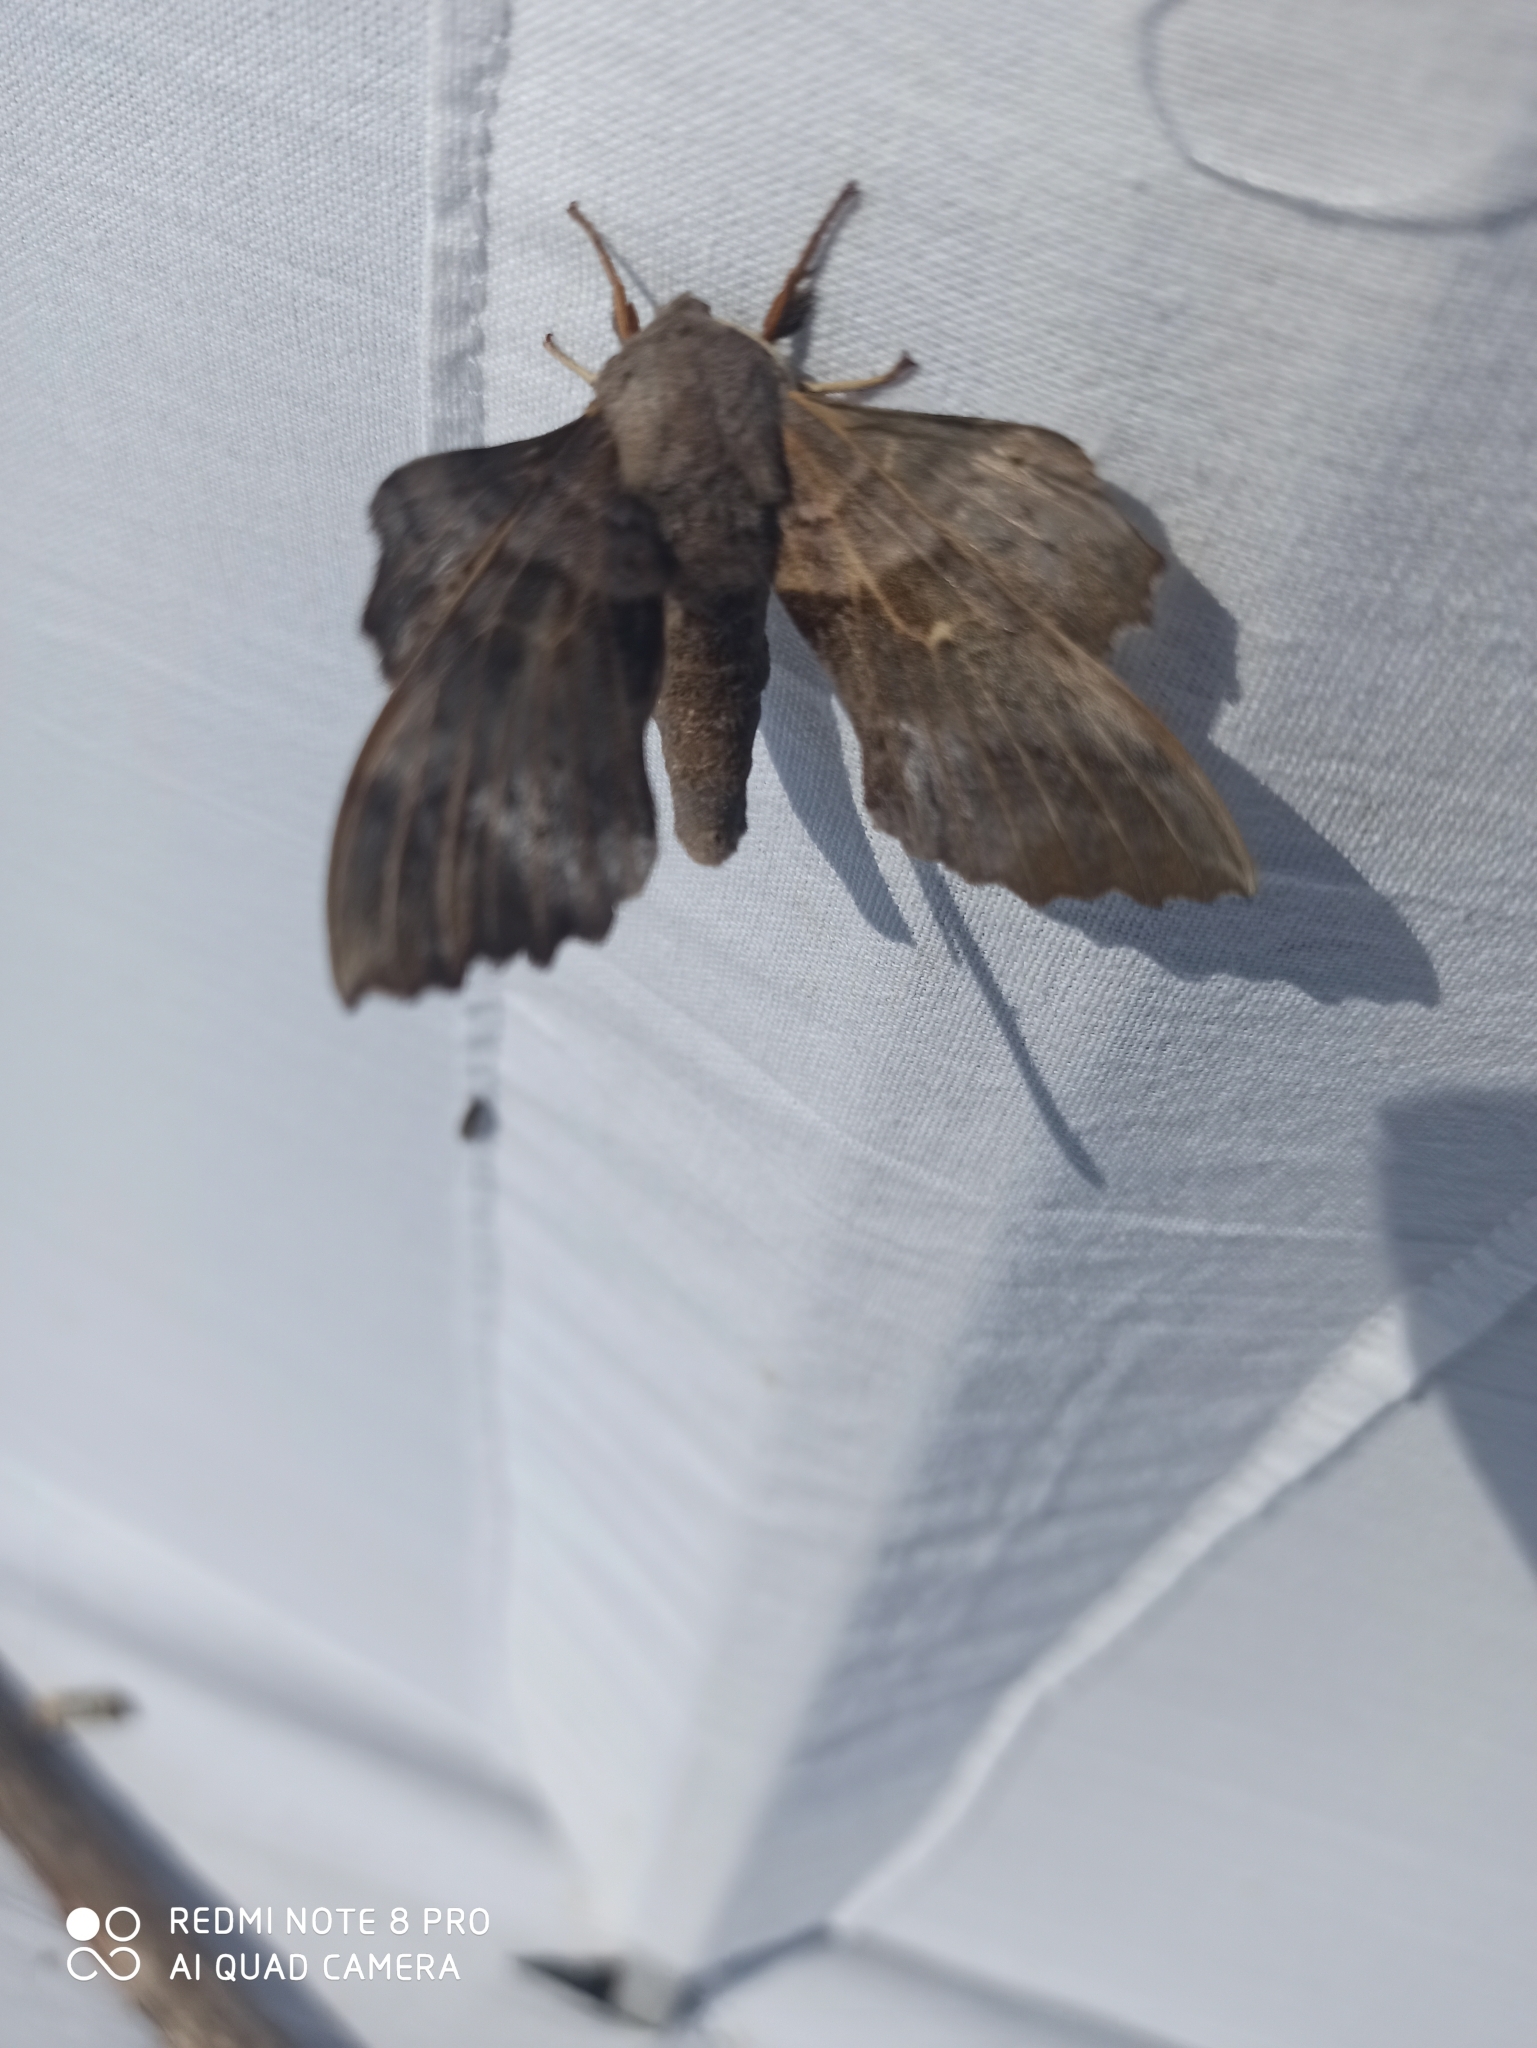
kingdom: Animalia
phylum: Arthropoda
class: Insecta
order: Lepidoptera
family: Sphingidae
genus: Laothoe
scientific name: Laothoe populi
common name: Poplar hawk-moth
